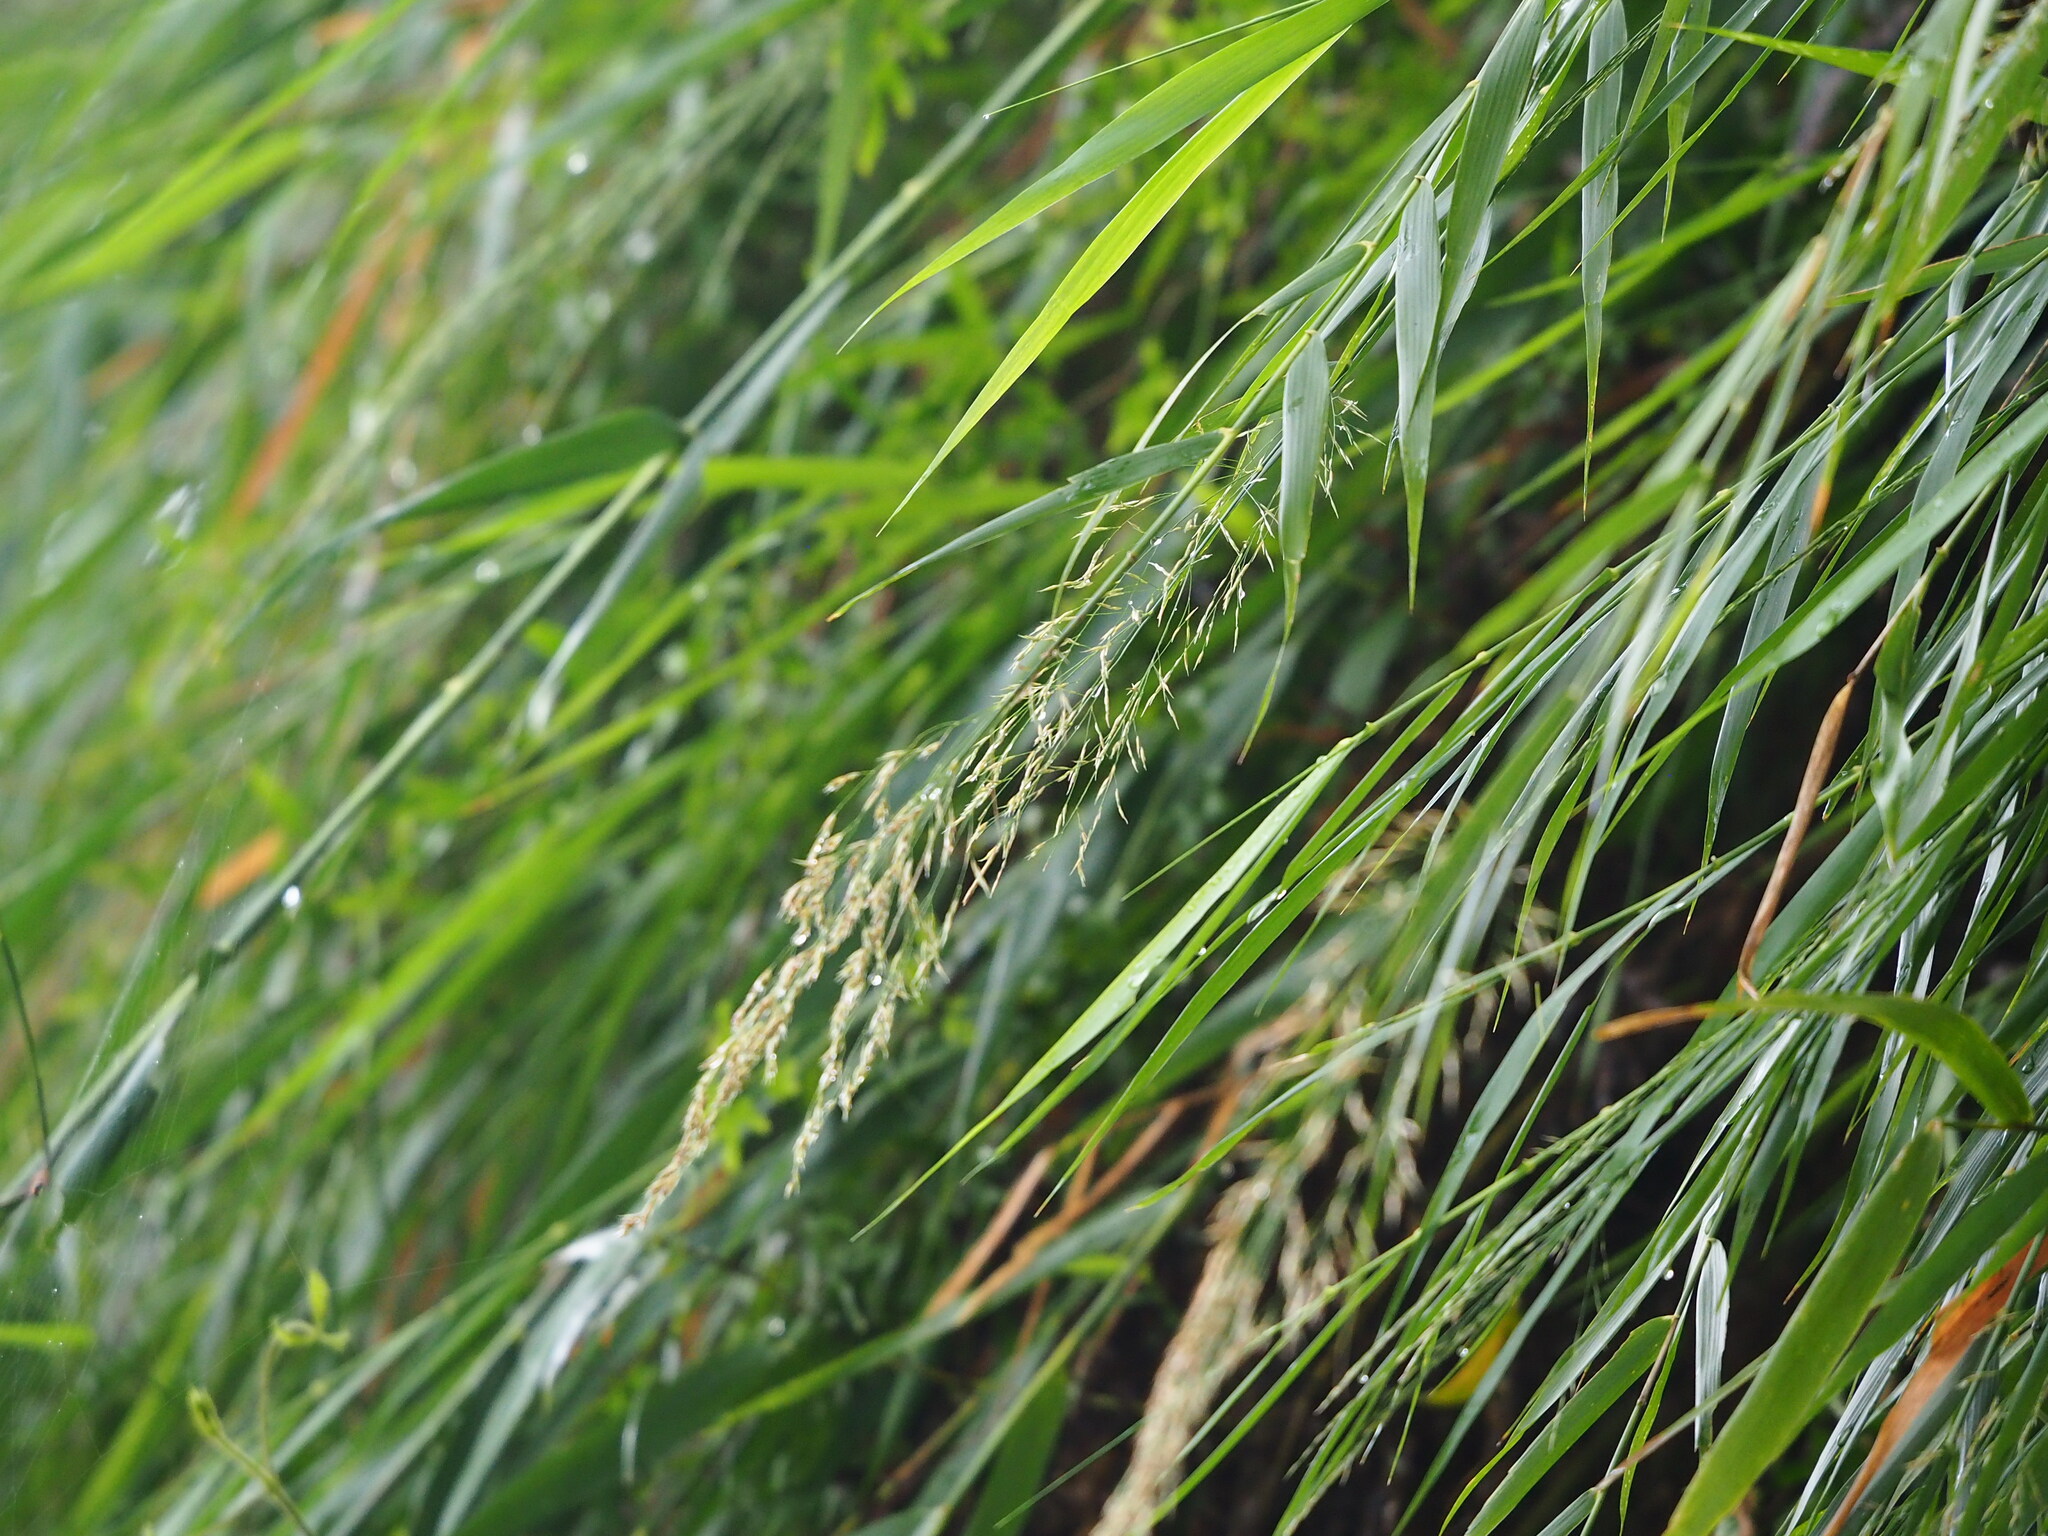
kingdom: Plantae
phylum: Tracheophyta
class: Liliopsida
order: Poales
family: Poaceae
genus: Arundo
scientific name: Arundo formosana
